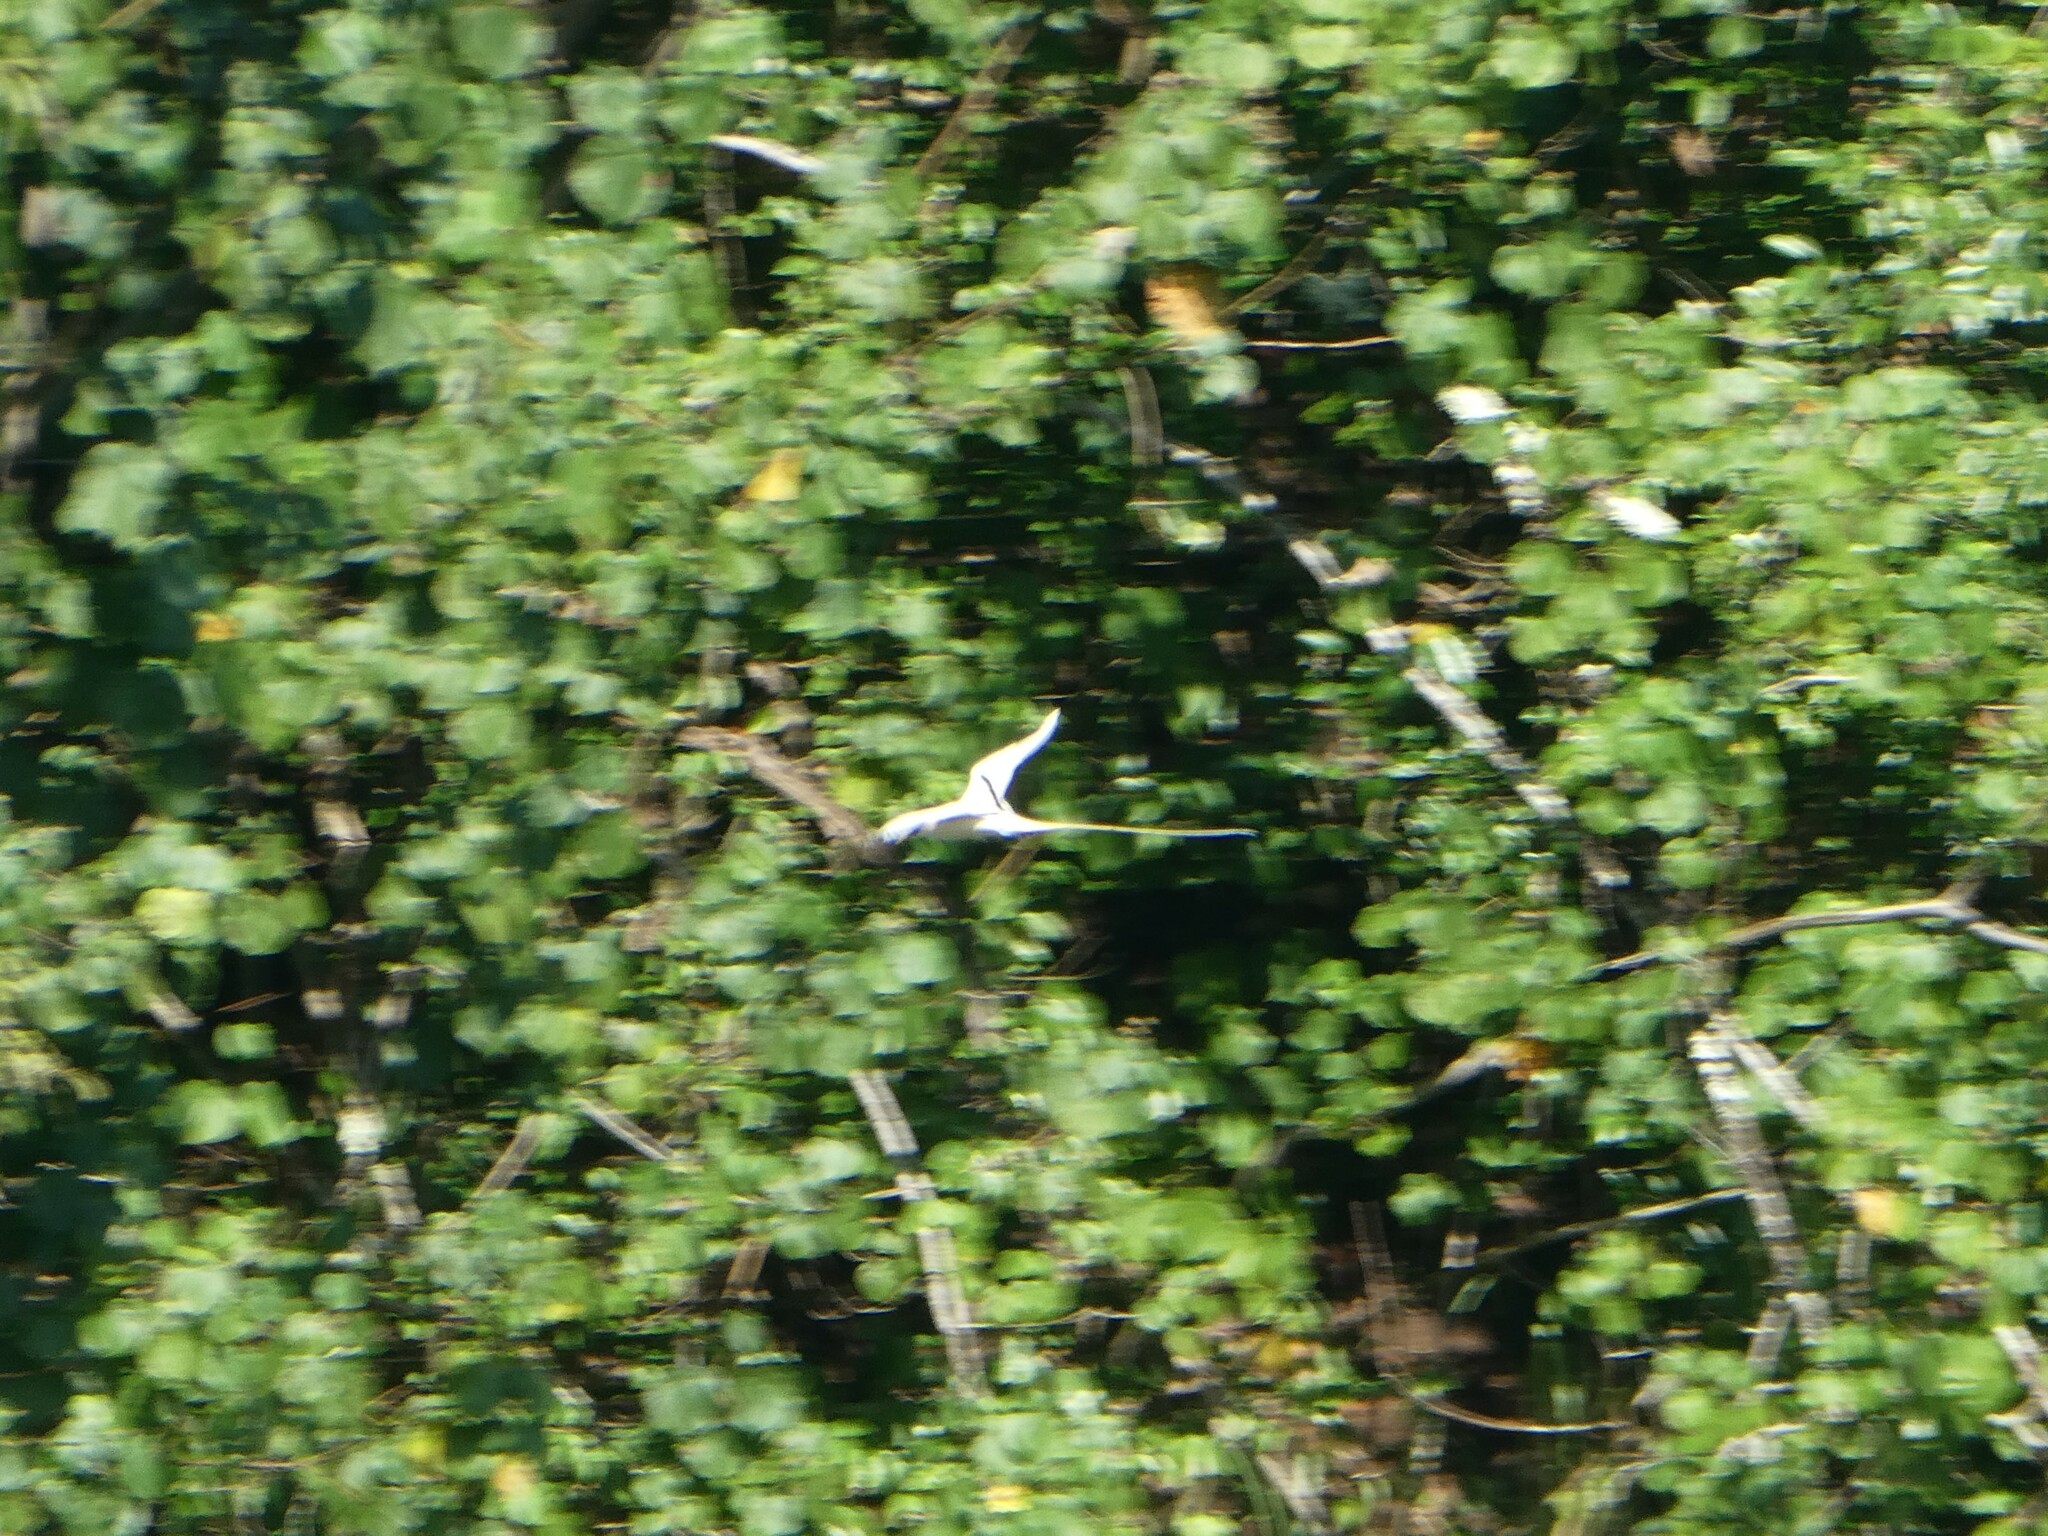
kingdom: Animalia
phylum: Chordata
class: Aves
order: Phaethontiformes
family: Phaethontidae
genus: Phaethon
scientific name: Phaethon lepturus
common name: White-tailed tropicbird
